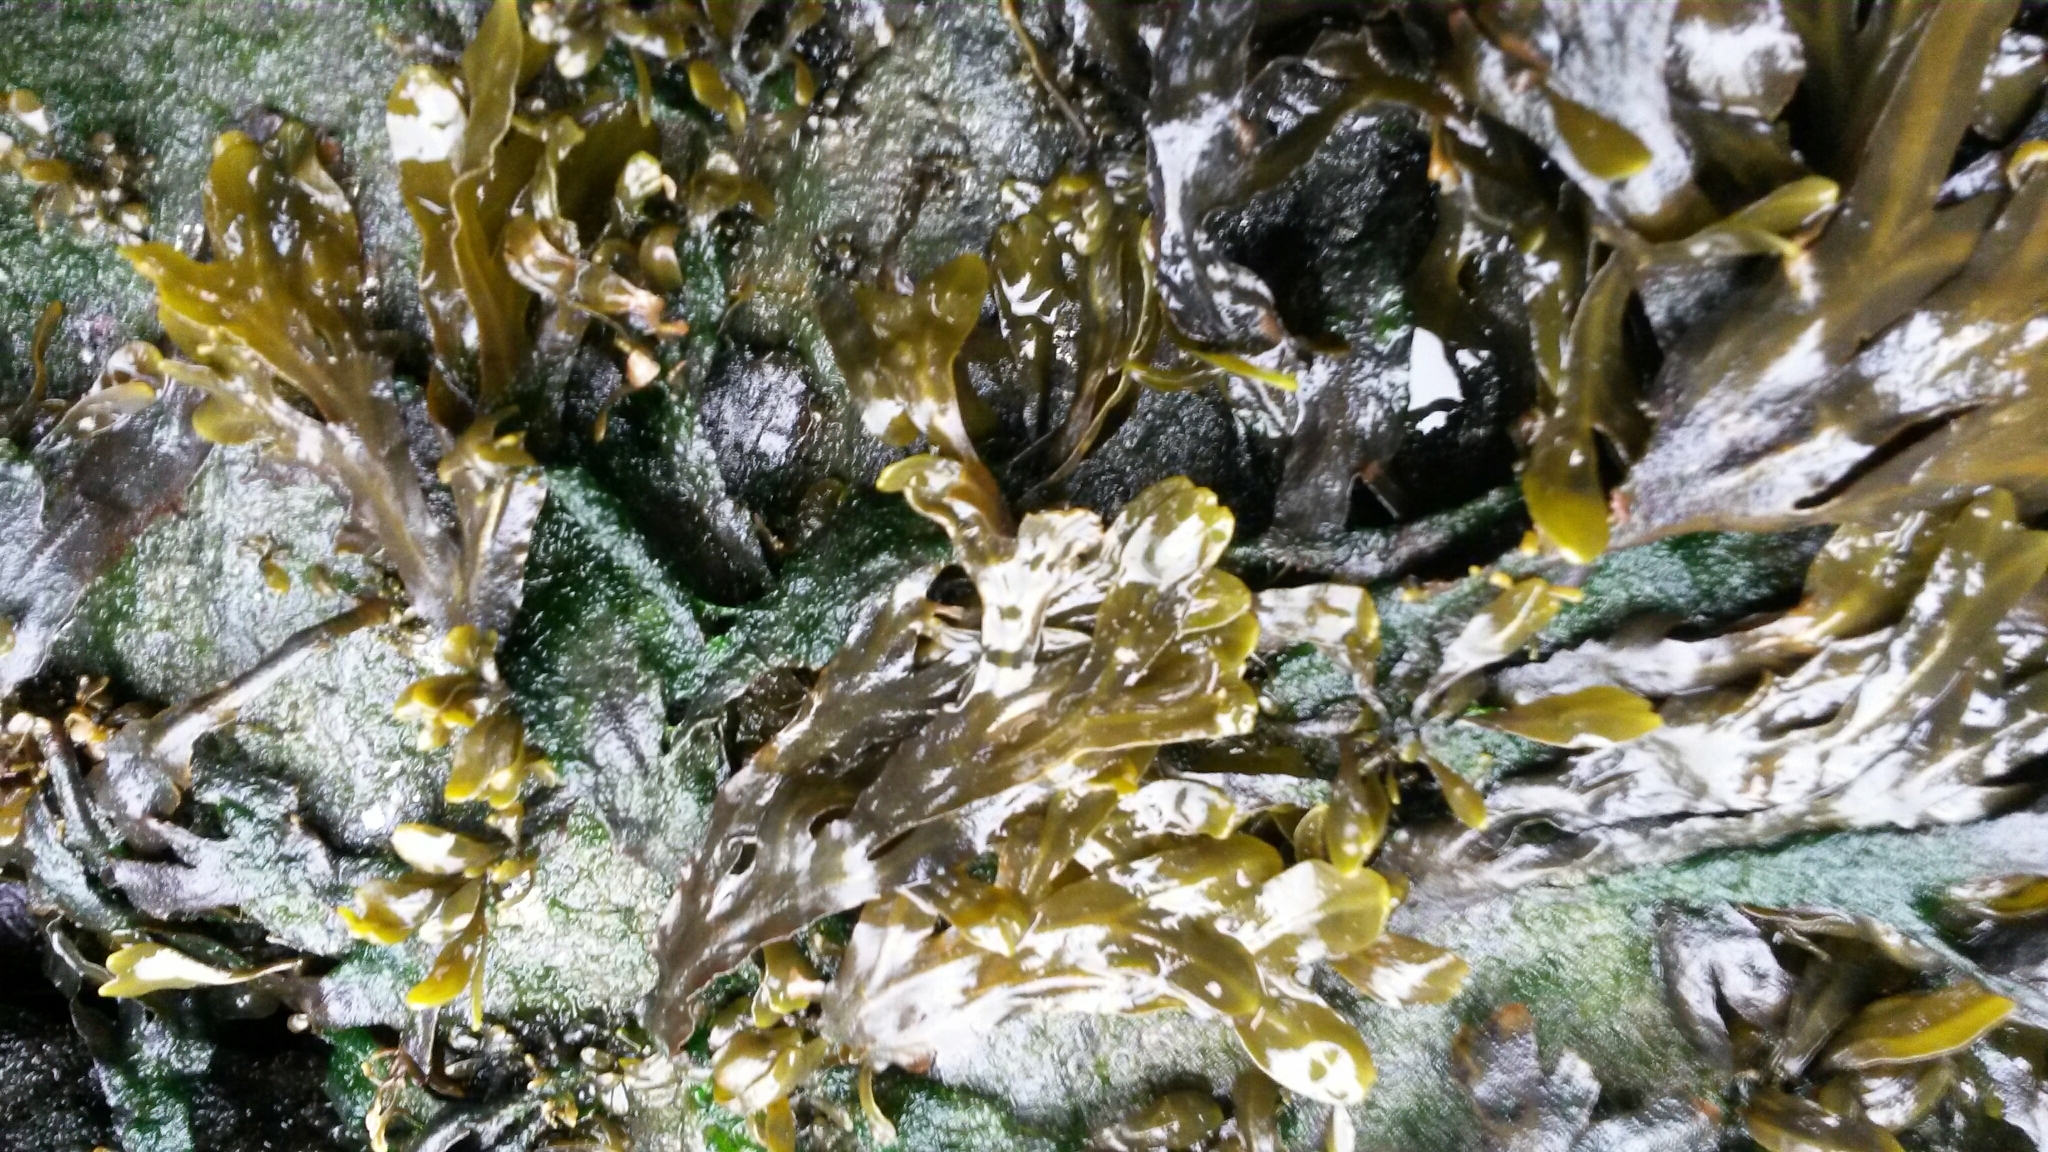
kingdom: Chromista
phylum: Ochrophyta
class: Phaeophyceae
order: Fucales
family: Fucaceae
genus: Fucus
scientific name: Fucus distichus
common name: Rockweed
